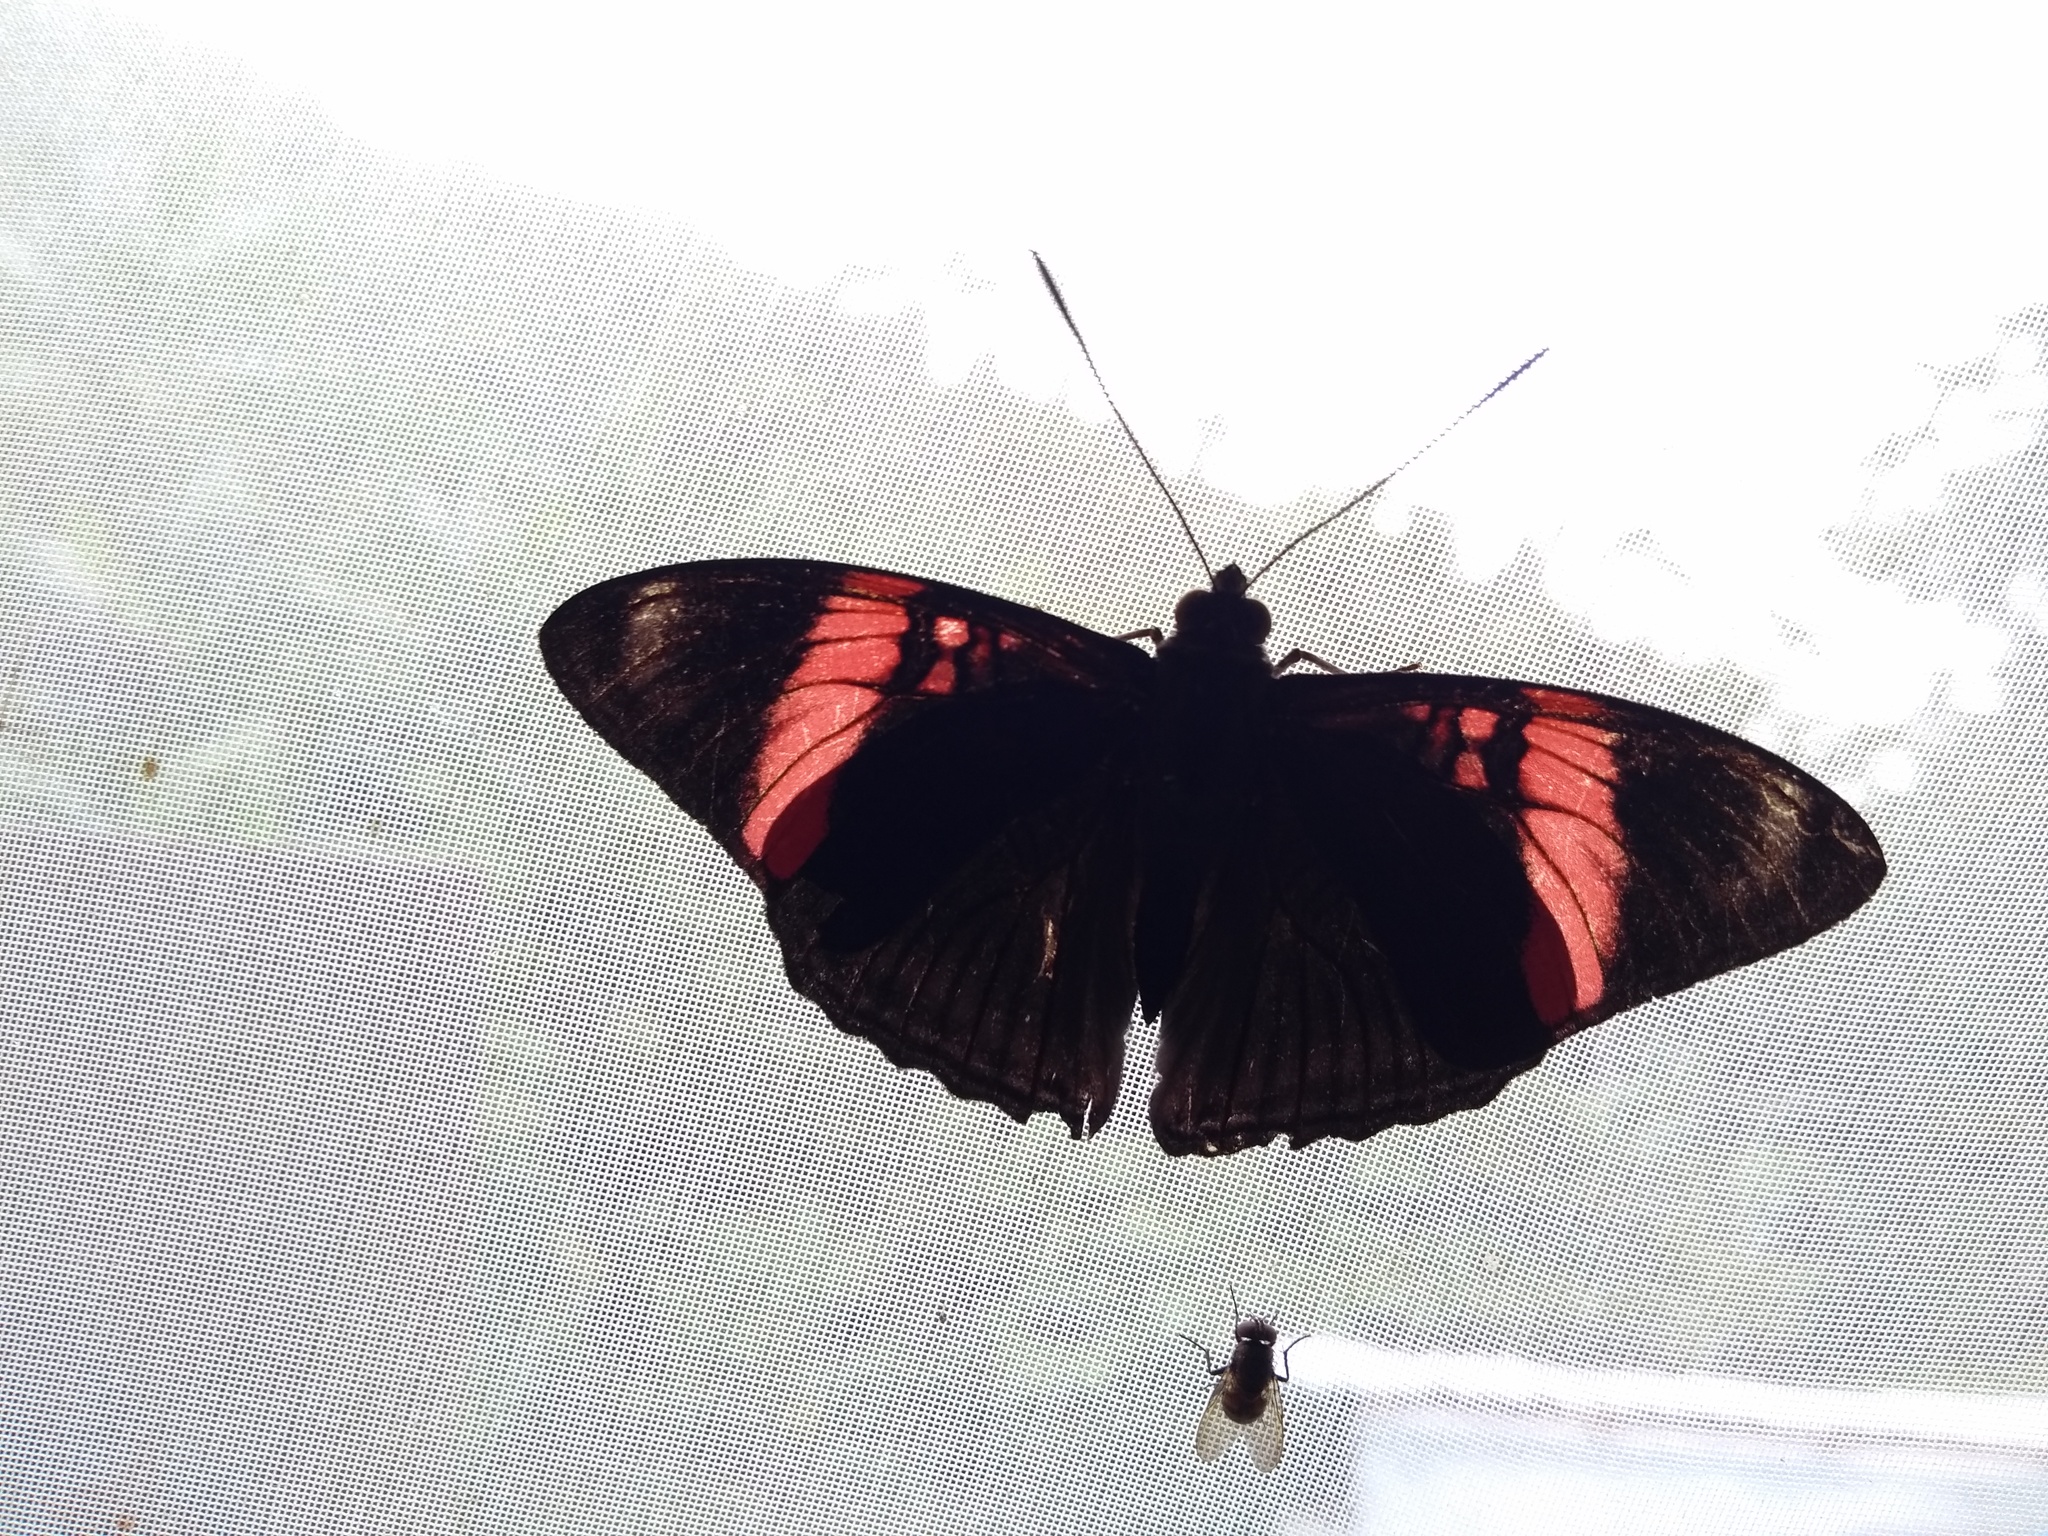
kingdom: Animalia
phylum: Arthropoda
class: Insecta
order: Lepidoptera
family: Nymphalidae
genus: Limenitis
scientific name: Limenitis isis
